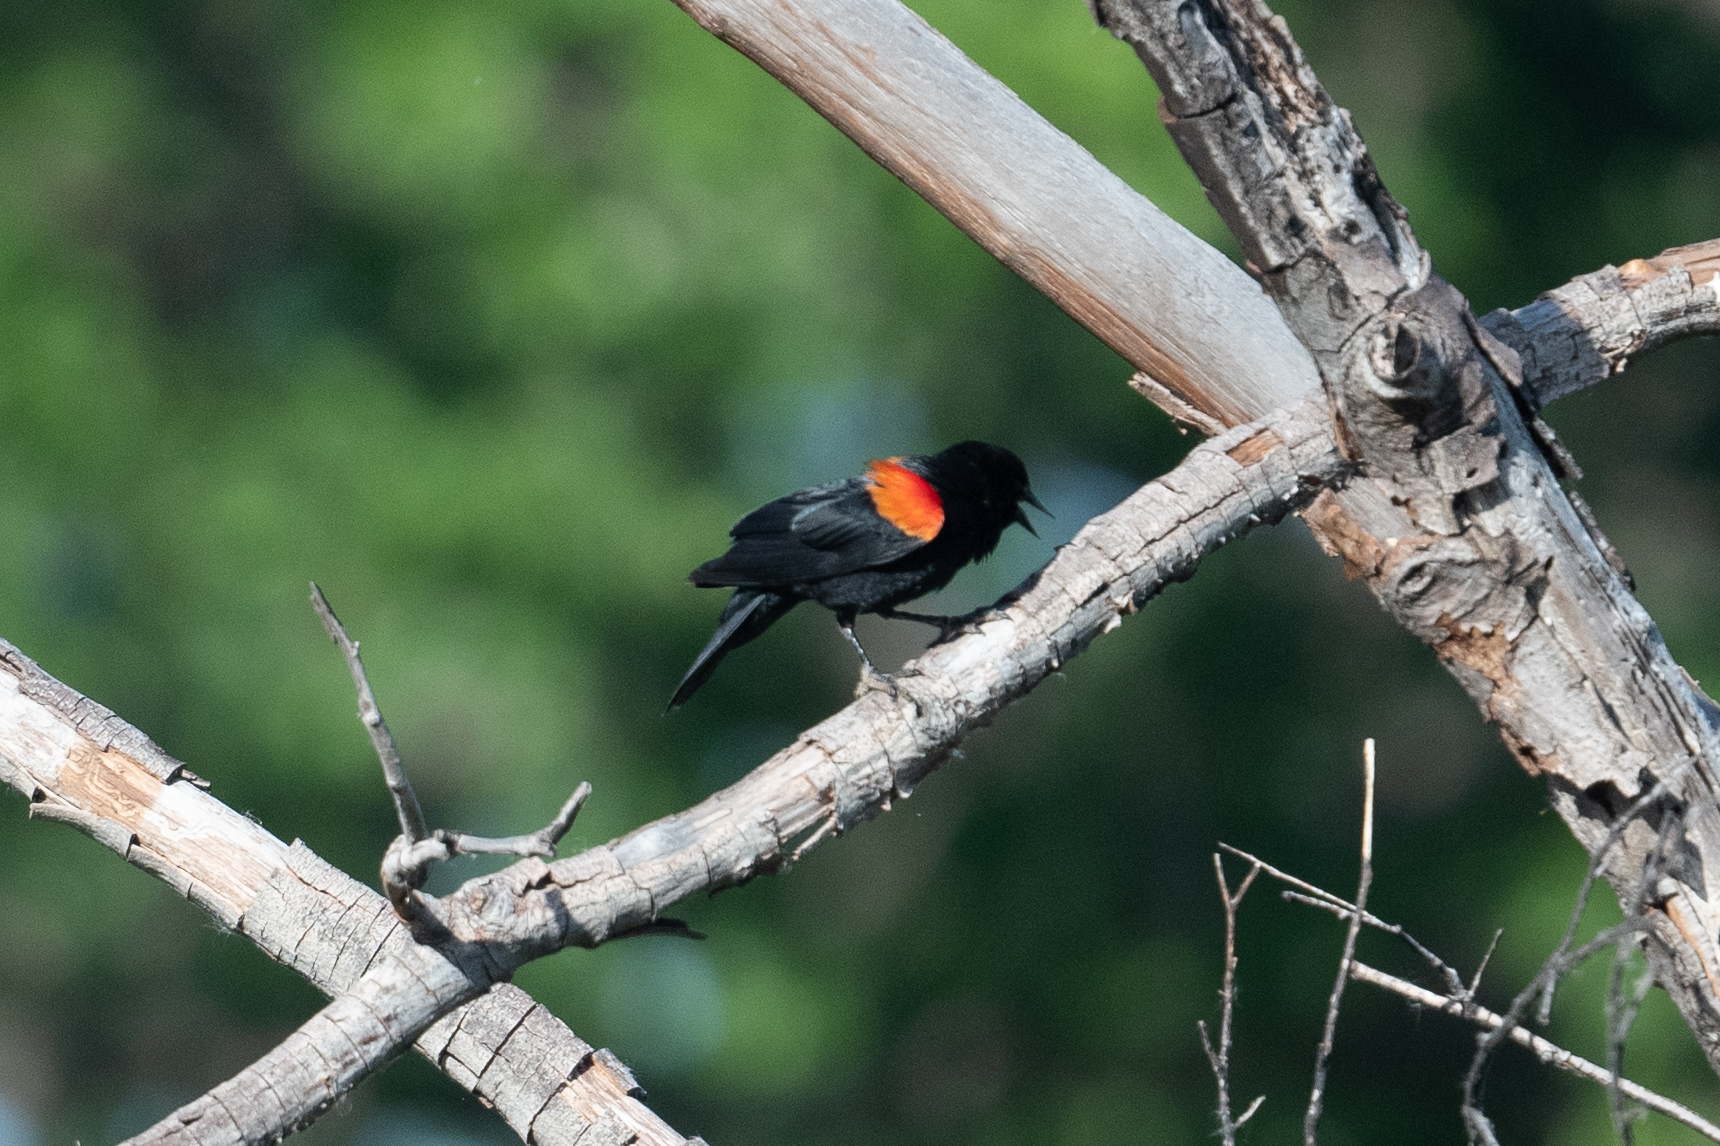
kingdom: Animalia
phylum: Chordata
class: Aves
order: Passeriformes
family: Icteridae
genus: Agelaius
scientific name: Agelaius phoeniceus
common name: Red-winged blackbird
